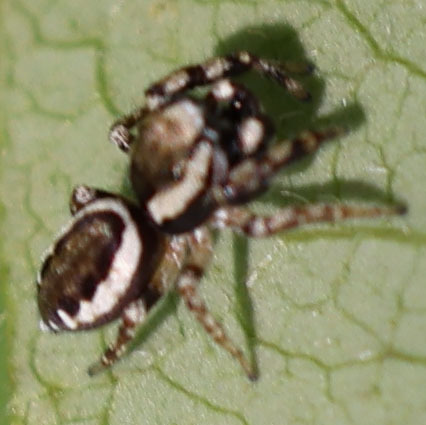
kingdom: Animalia
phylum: Arthropoda
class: Arachnida
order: Araneae
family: Salticidae
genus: Pelegrina
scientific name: Pelegrina proterva
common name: Common white-cheeked jumping spider
